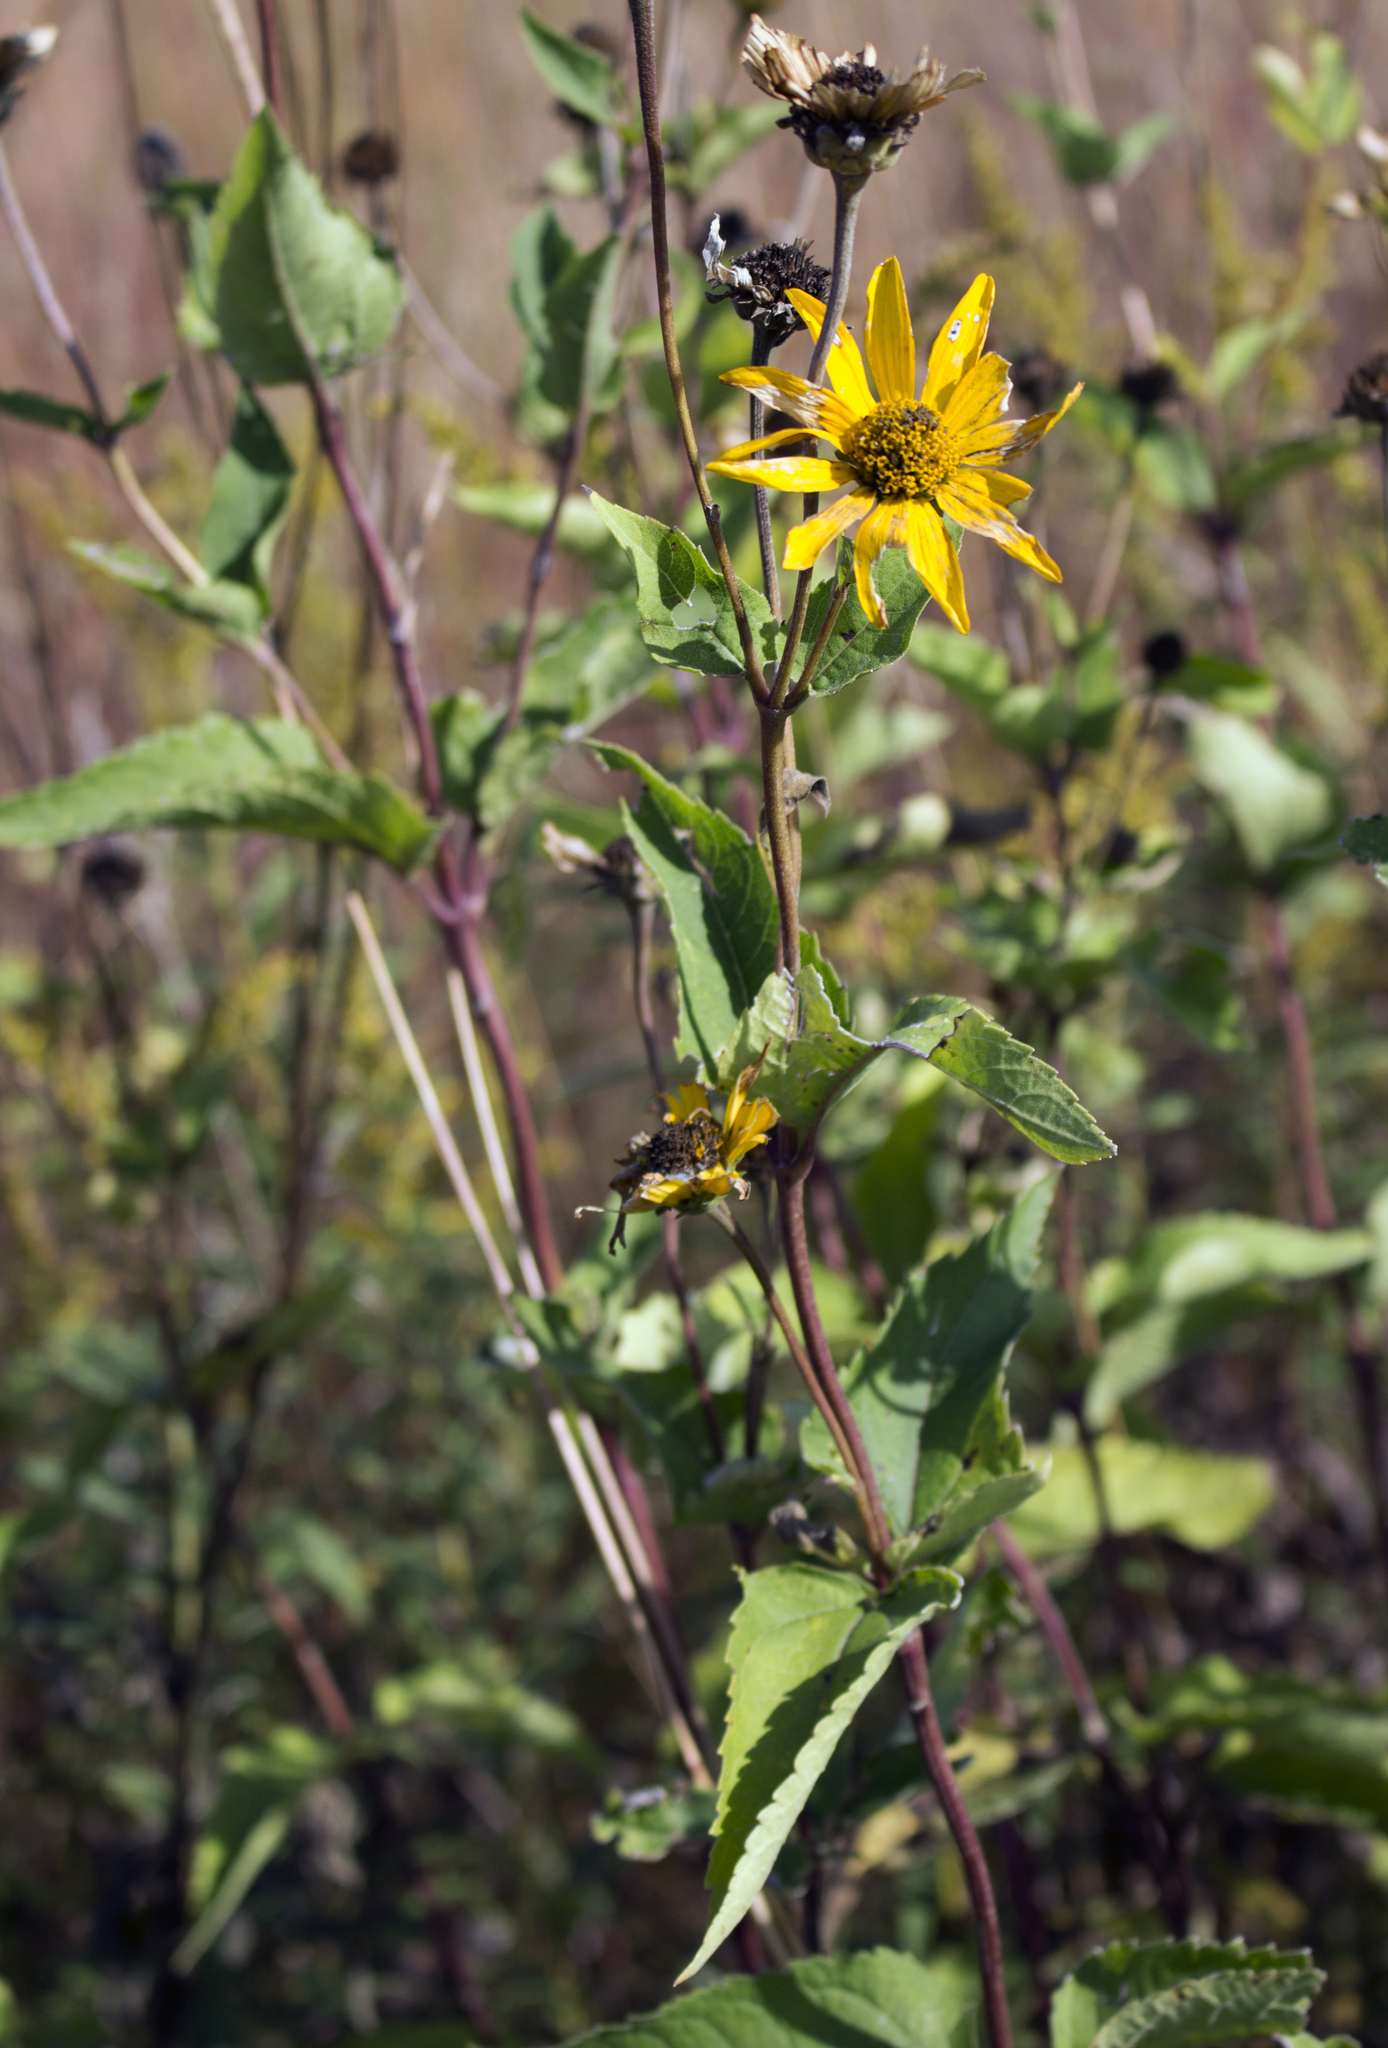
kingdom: Plantae
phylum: Tracheophyta
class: Magnoliopsida
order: Asterales
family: Asteraceae
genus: Heliopsis
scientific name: Heliopsis helianthoides
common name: False sunflower
